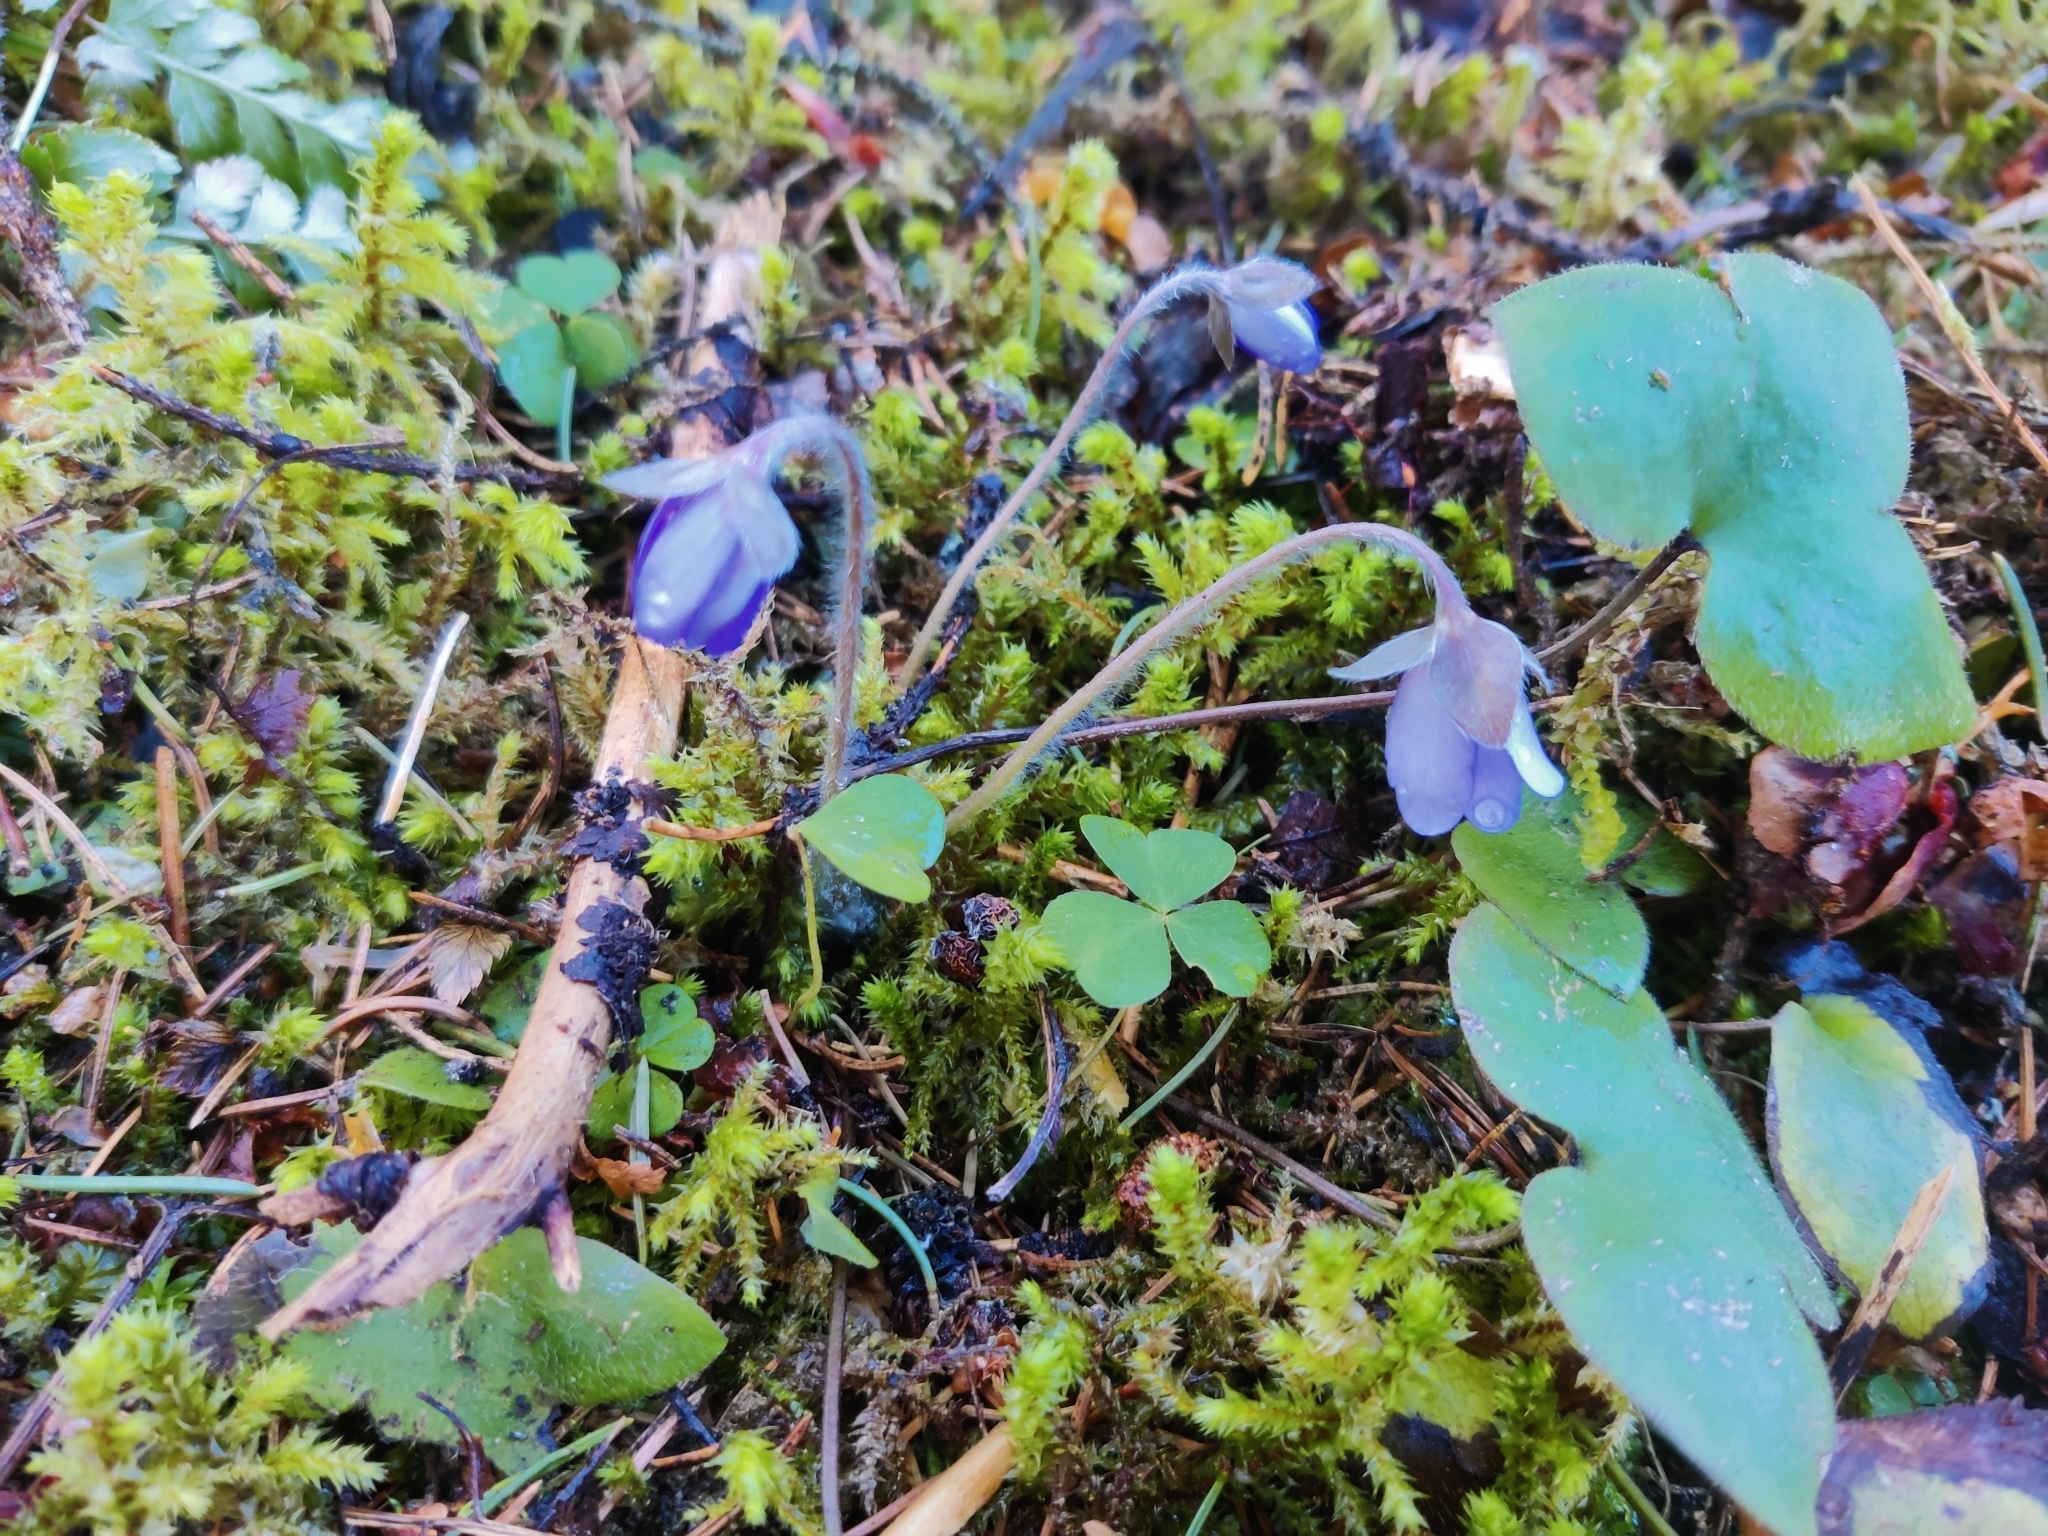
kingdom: Plantae
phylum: Tracheophyta
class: Magnoliopsida
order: Ranunculales
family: Ranunculaceae
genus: Hepatica
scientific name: Hepatica nobilis
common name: Liverleaf
